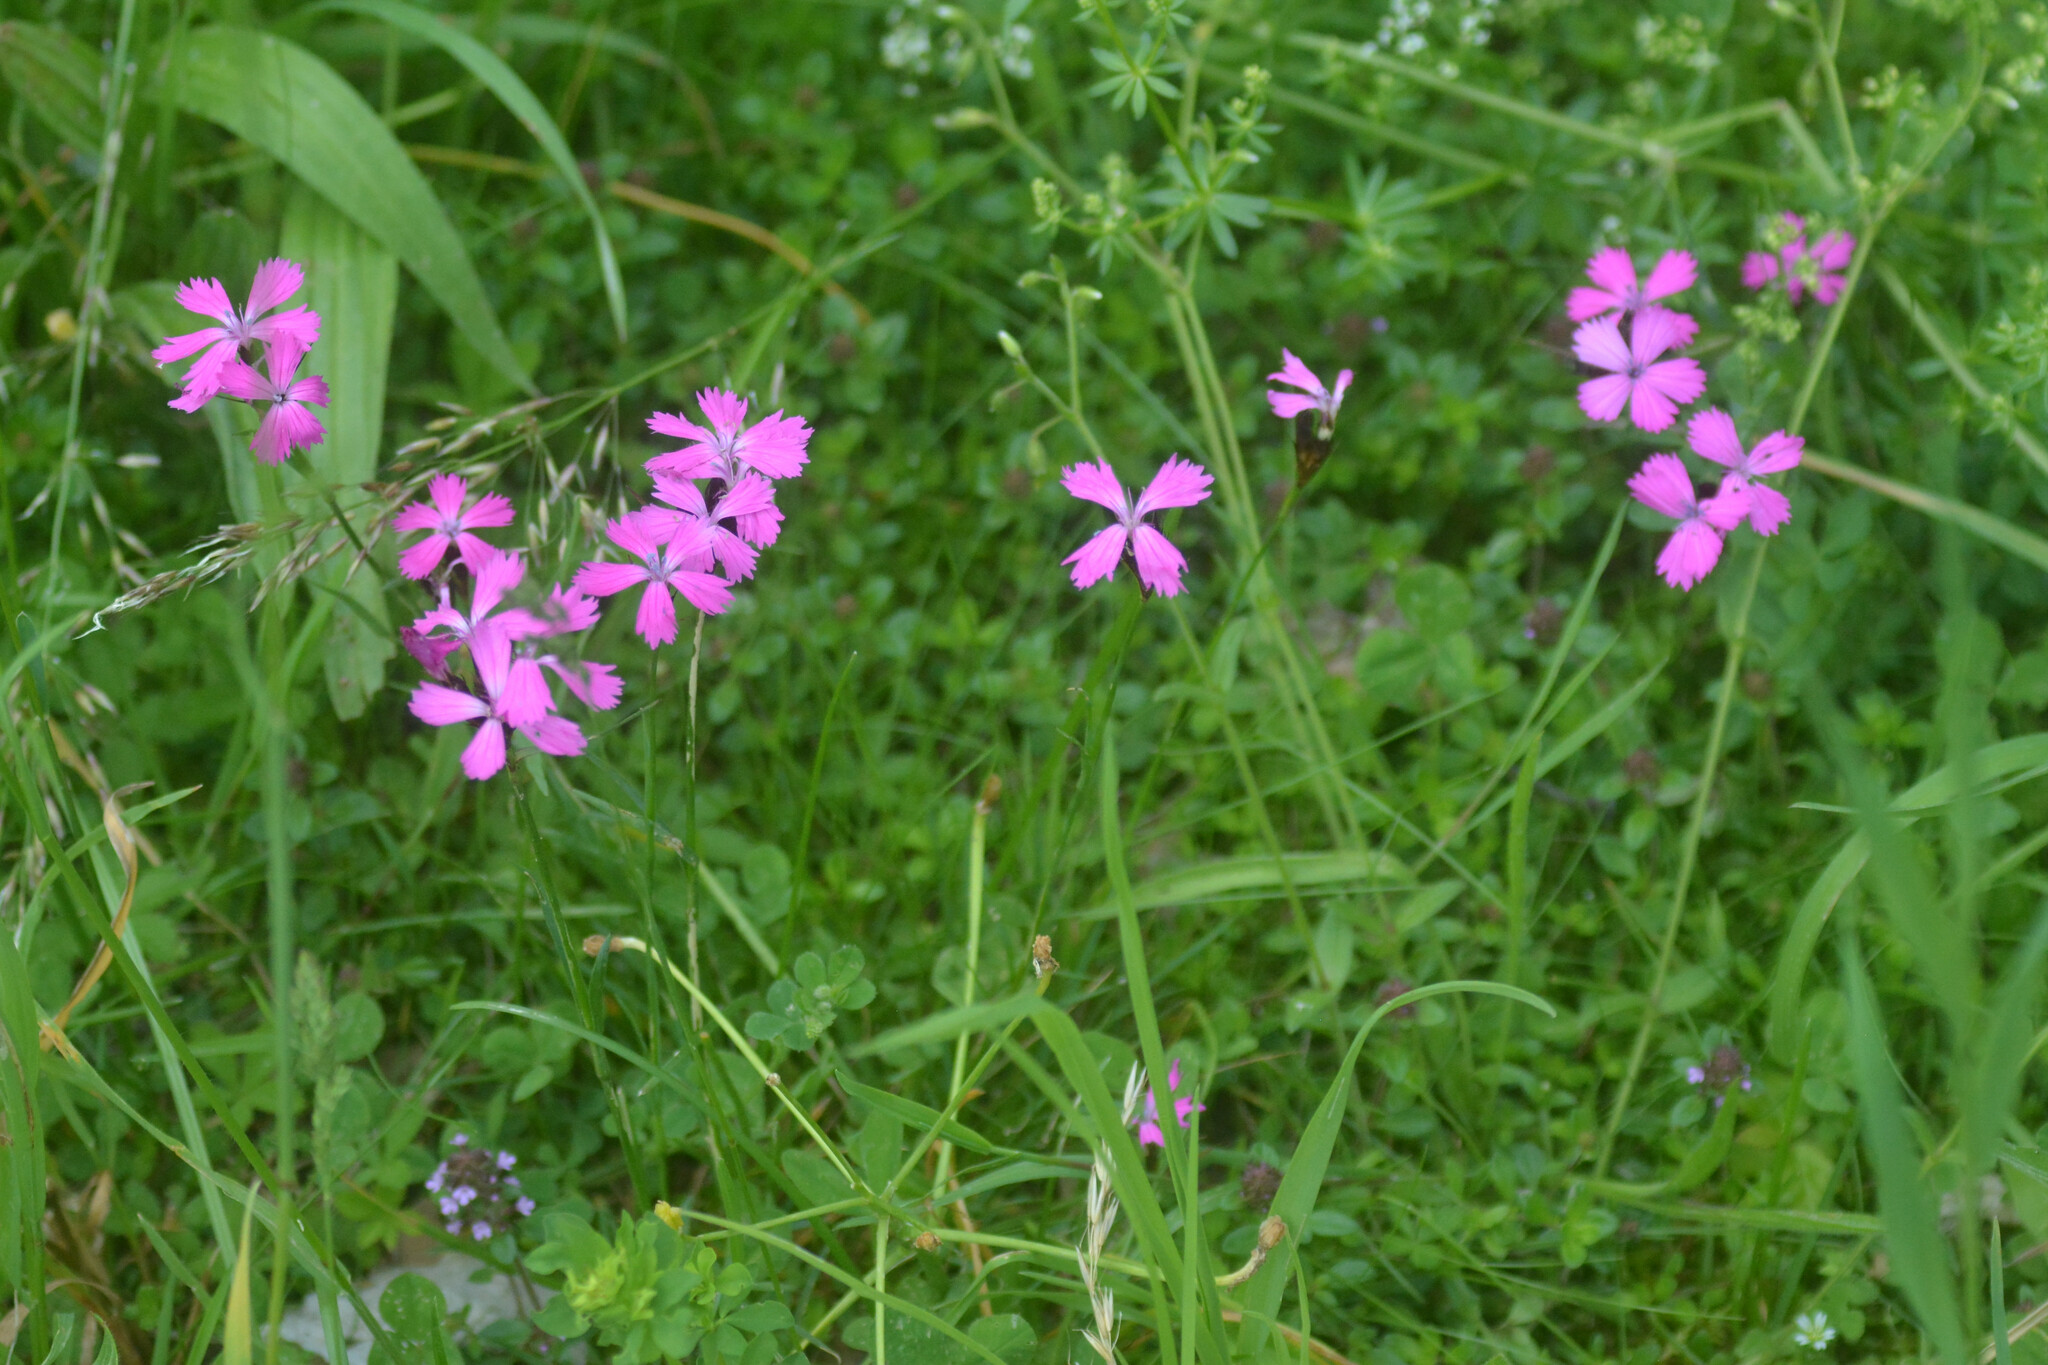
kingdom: Plantae
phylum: Tracheophyta
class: Magnoliopsida
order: Caryophyllales
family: Caryophyllaceae
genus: Dianthus
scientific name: Dianthus carthusianorum
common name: Carthusian pink
